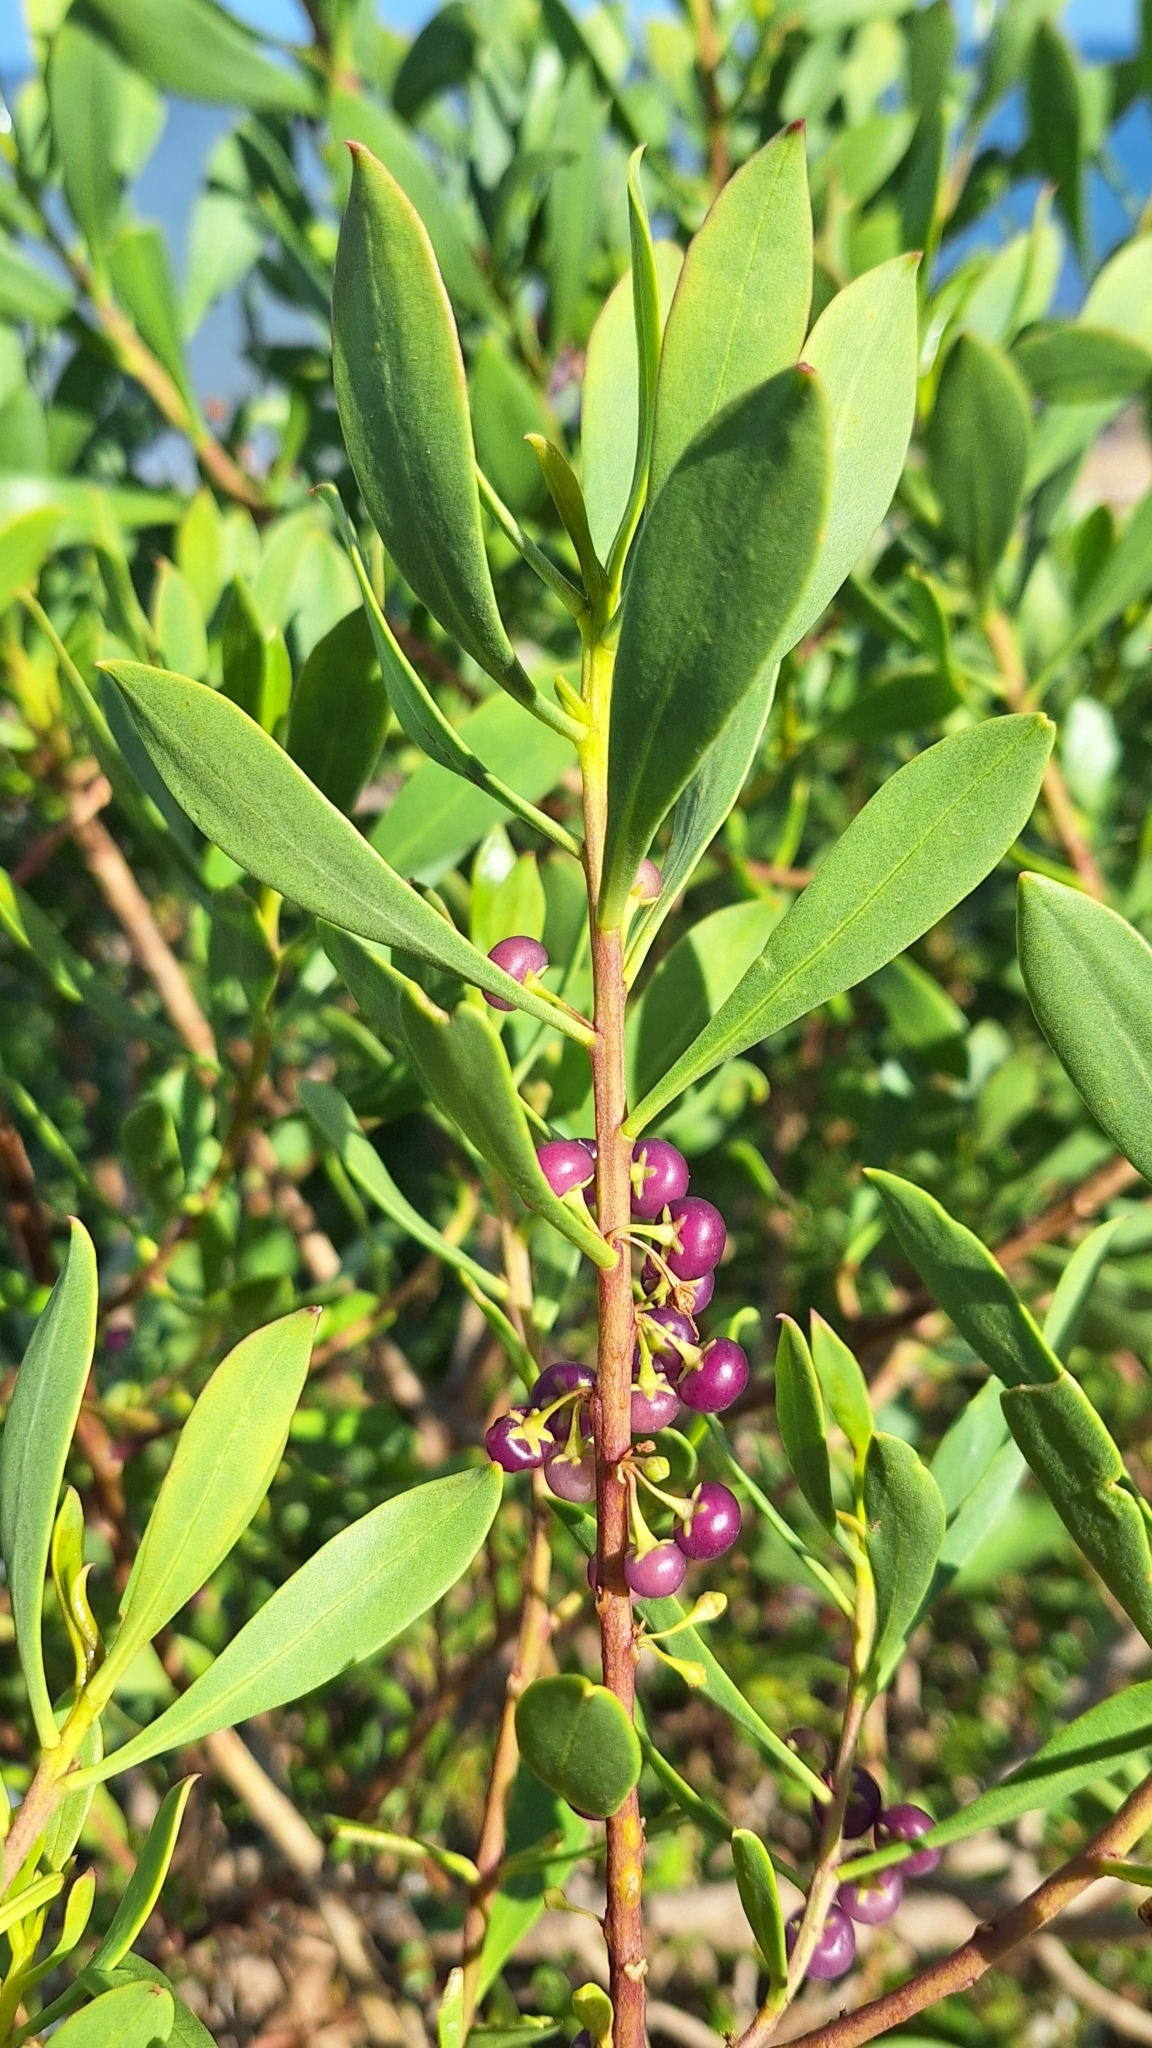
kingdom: Plantae
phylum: Tracheophyta
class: Magnoliopsida
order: Lamiales
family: Scrophulariaceae
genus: Myoporum
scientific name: Myoporum insulare
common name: Common boobialla
